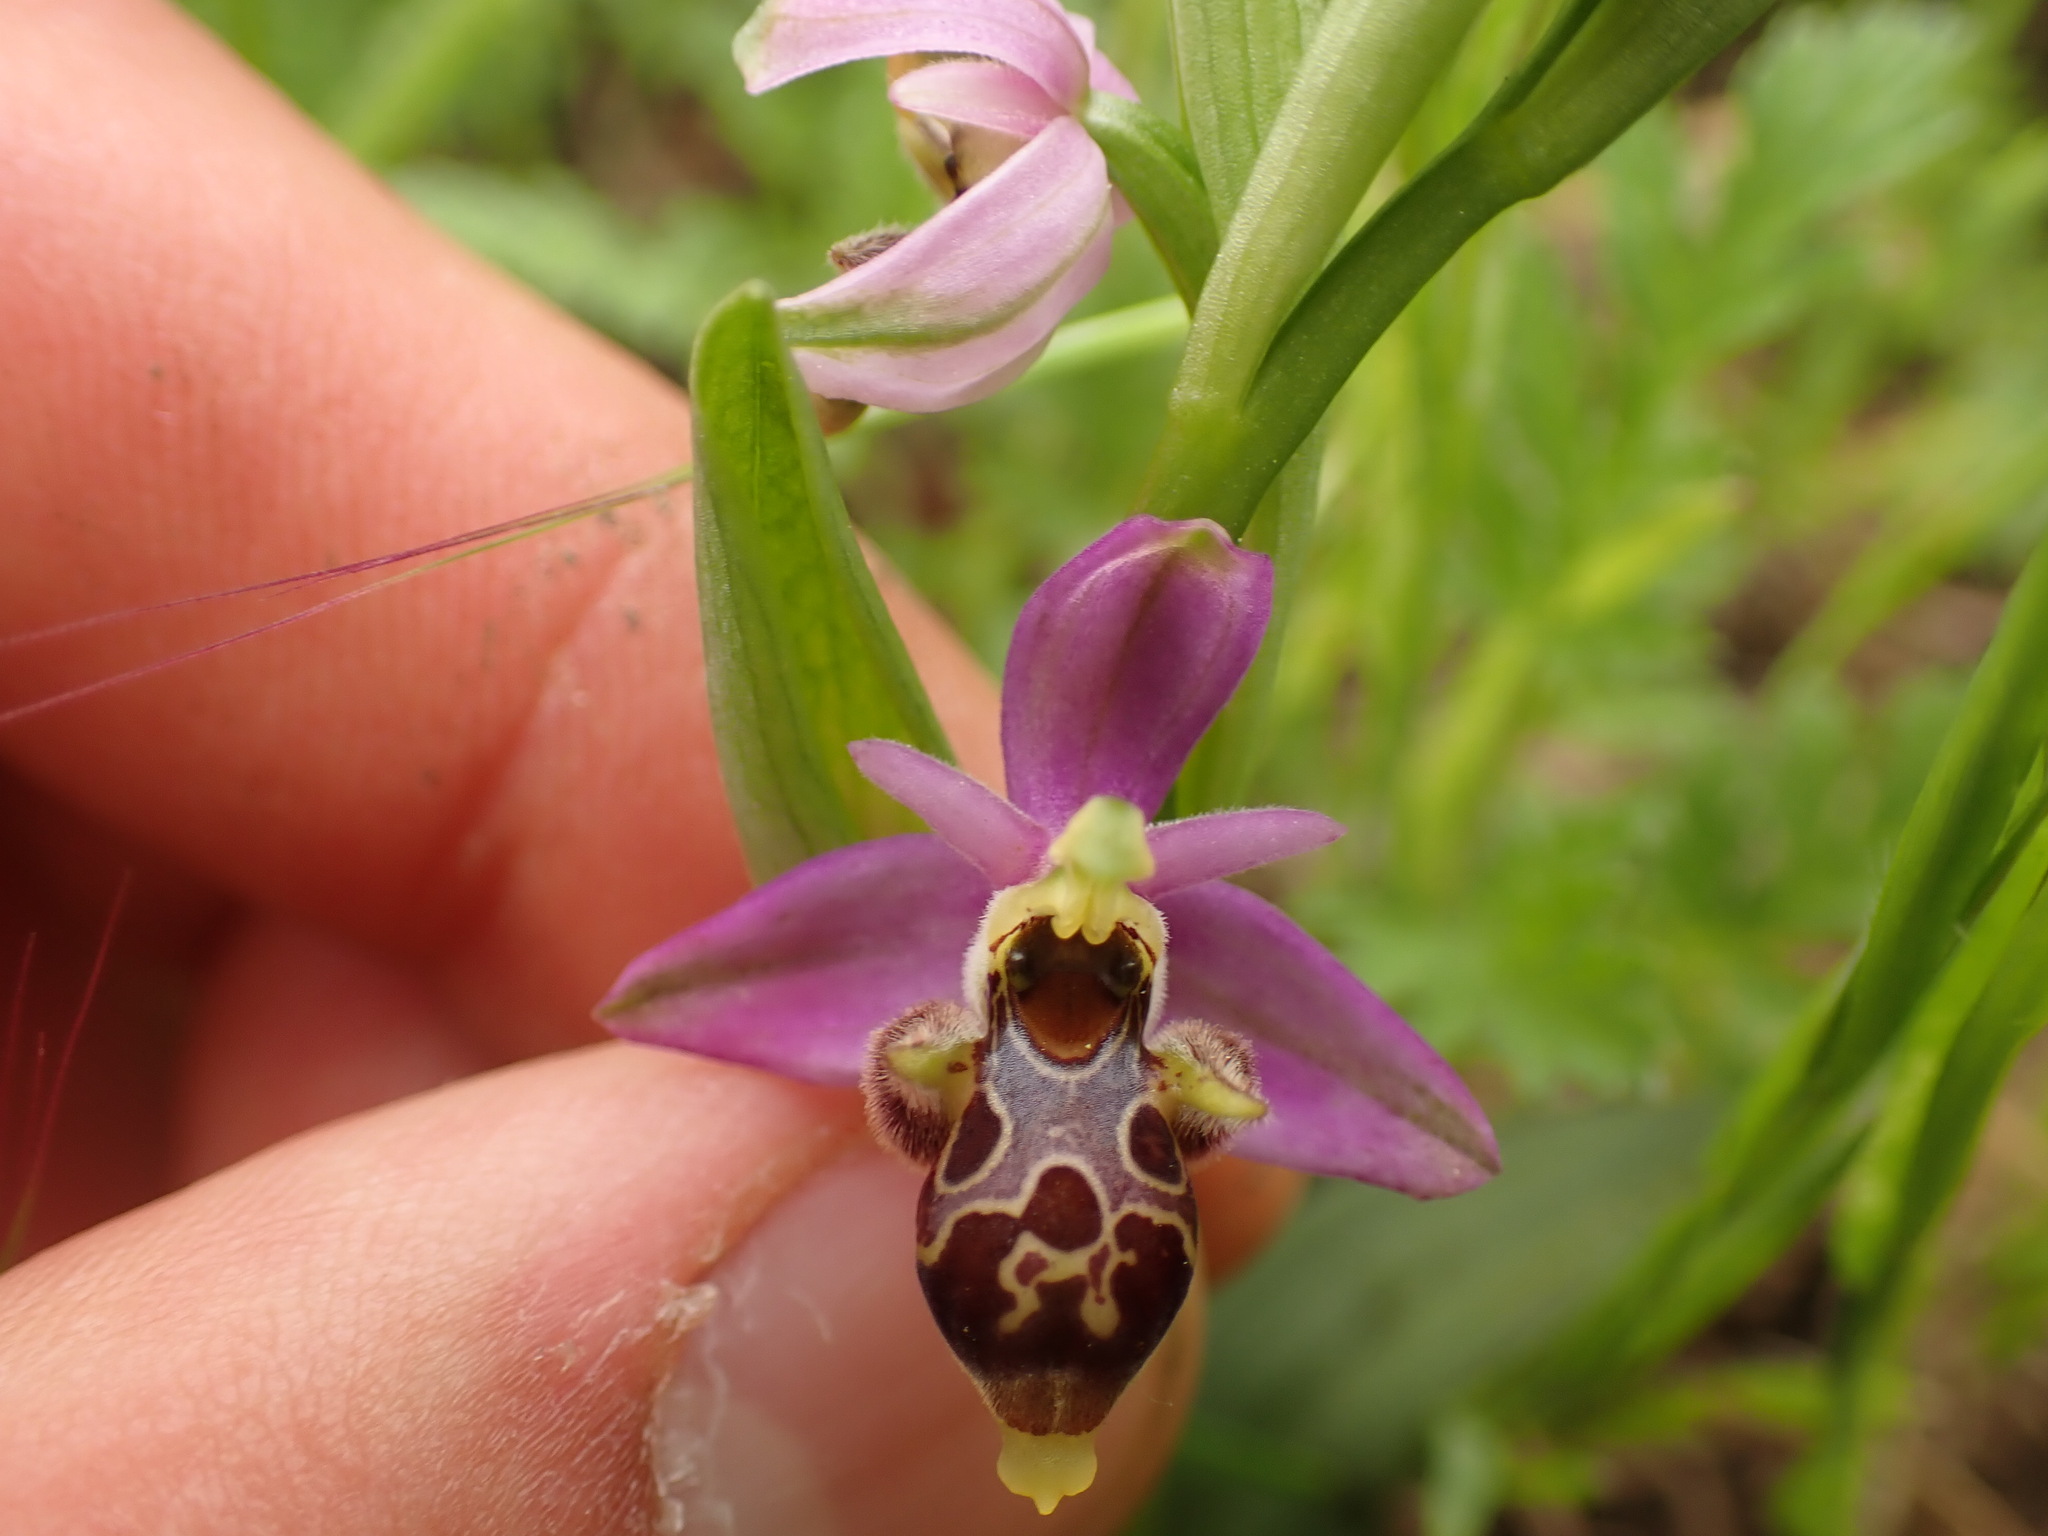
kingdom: Plantae
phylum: Tracheophyta
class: Liliopsida
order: Asparagales
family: Orchidaceae
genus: Ophrys
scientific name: Ophrys scolopax
